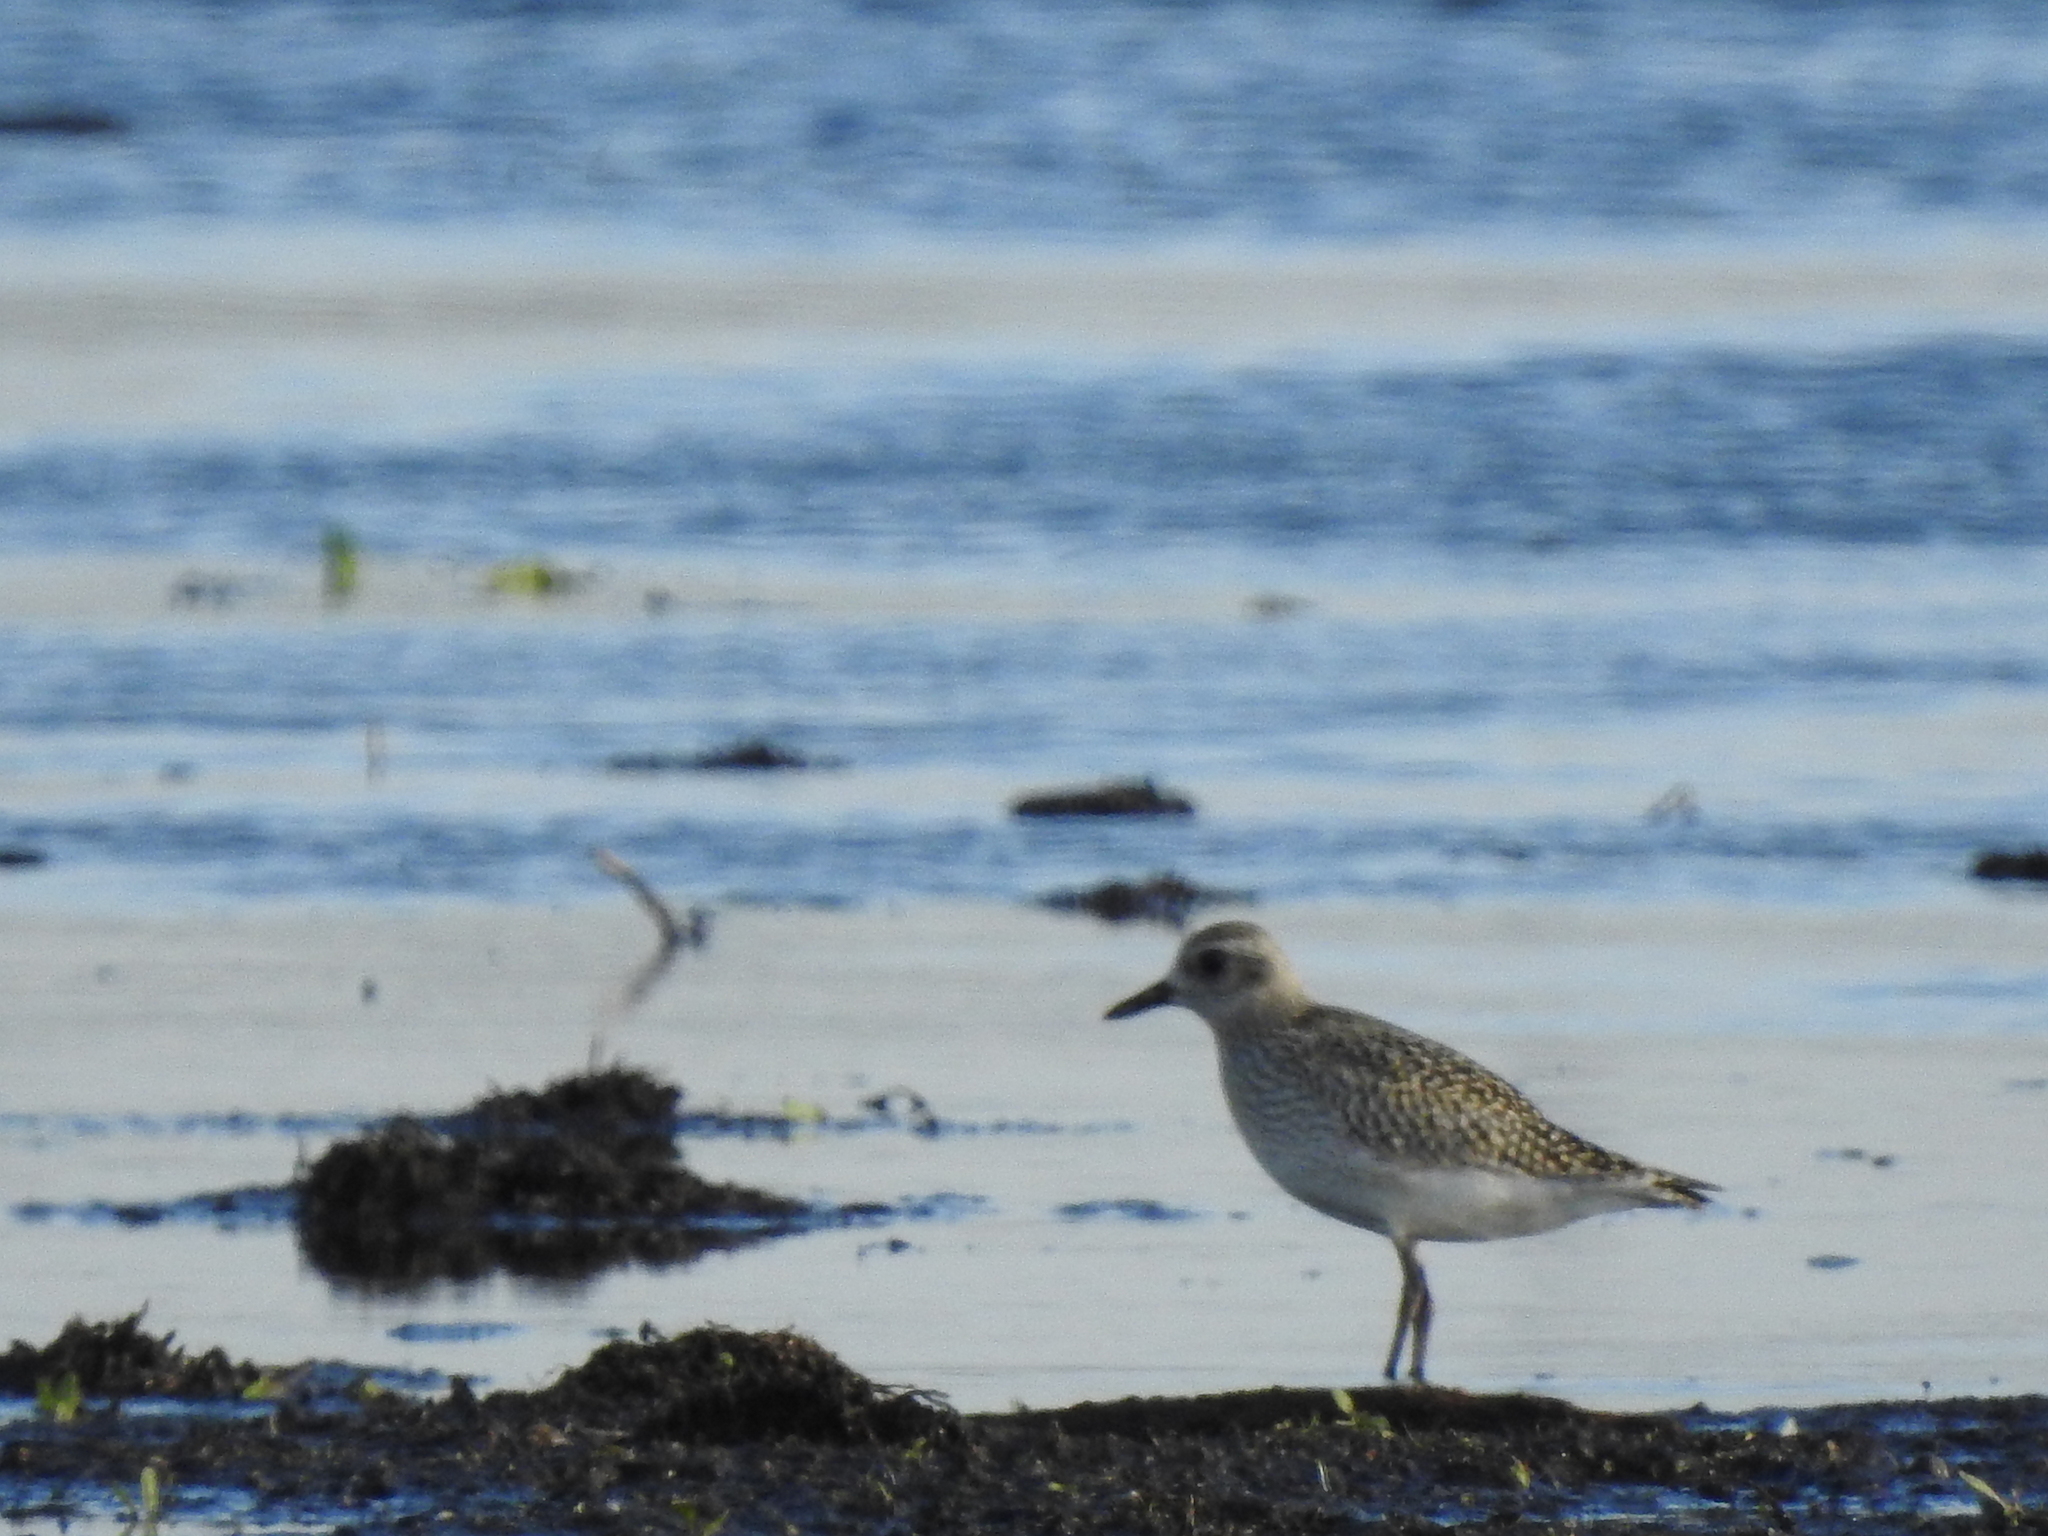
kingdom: Animalia
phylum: Chordata
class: Aves
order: Charadriiformes
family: Charadriidae
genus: Pluvialis
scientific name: Pluvialis squatarola
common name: Grey plover
